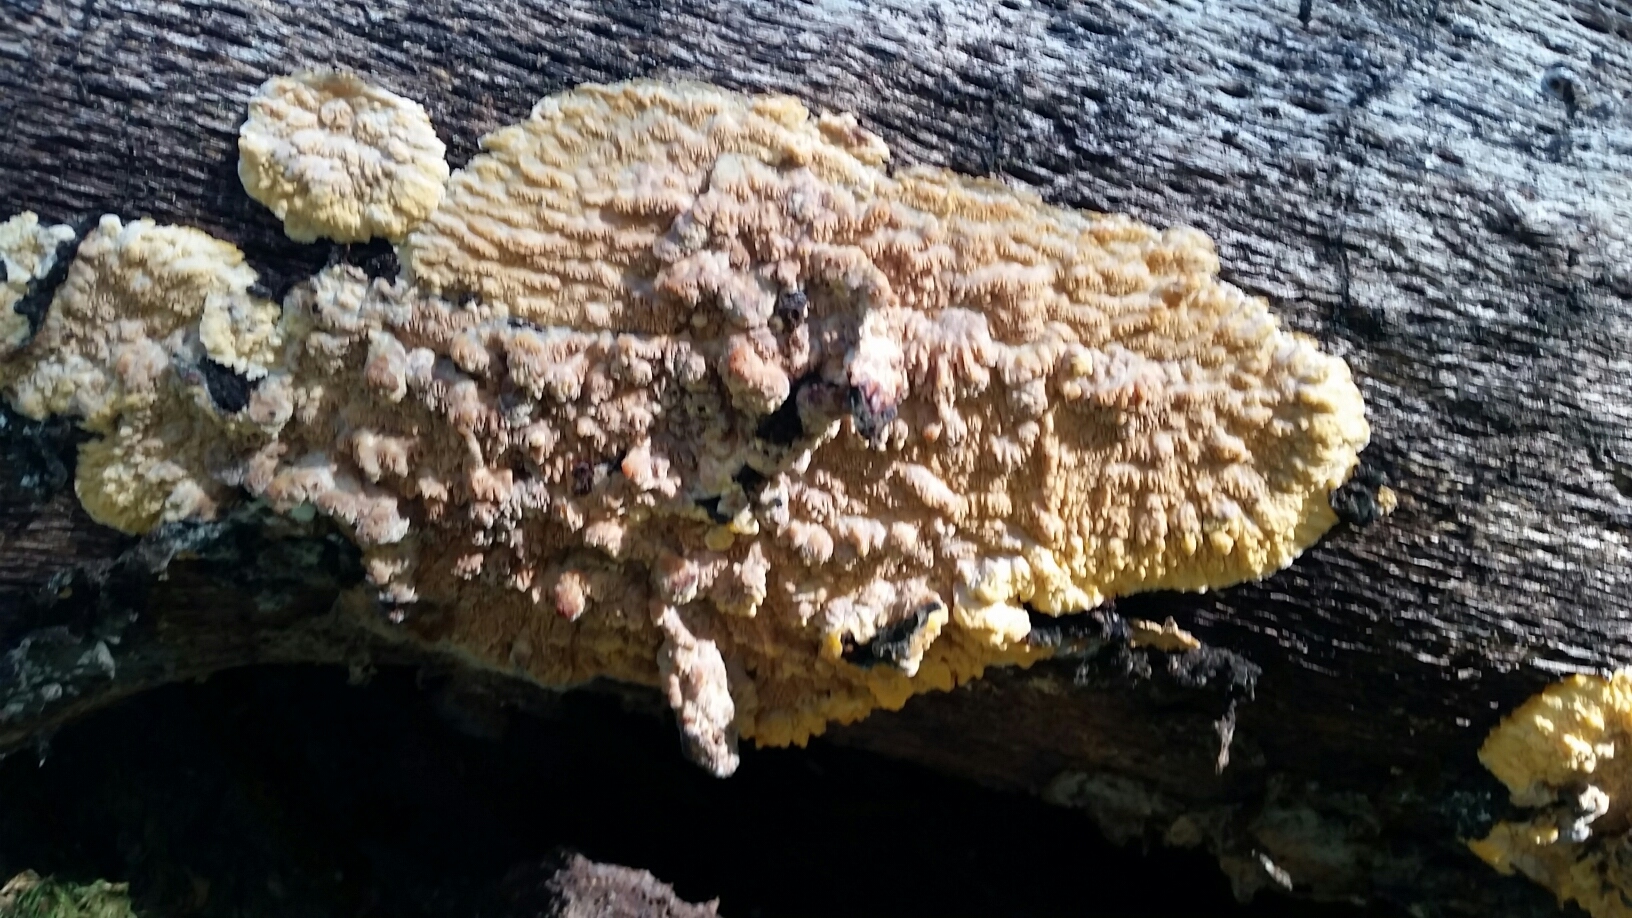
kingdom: Fungi
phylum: Basidiomycota
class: Agaricomycetes
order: Polyporales
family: Meruliaceae
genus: Phlebia
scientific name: Phlebia radiata
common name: Wrinkled crust
